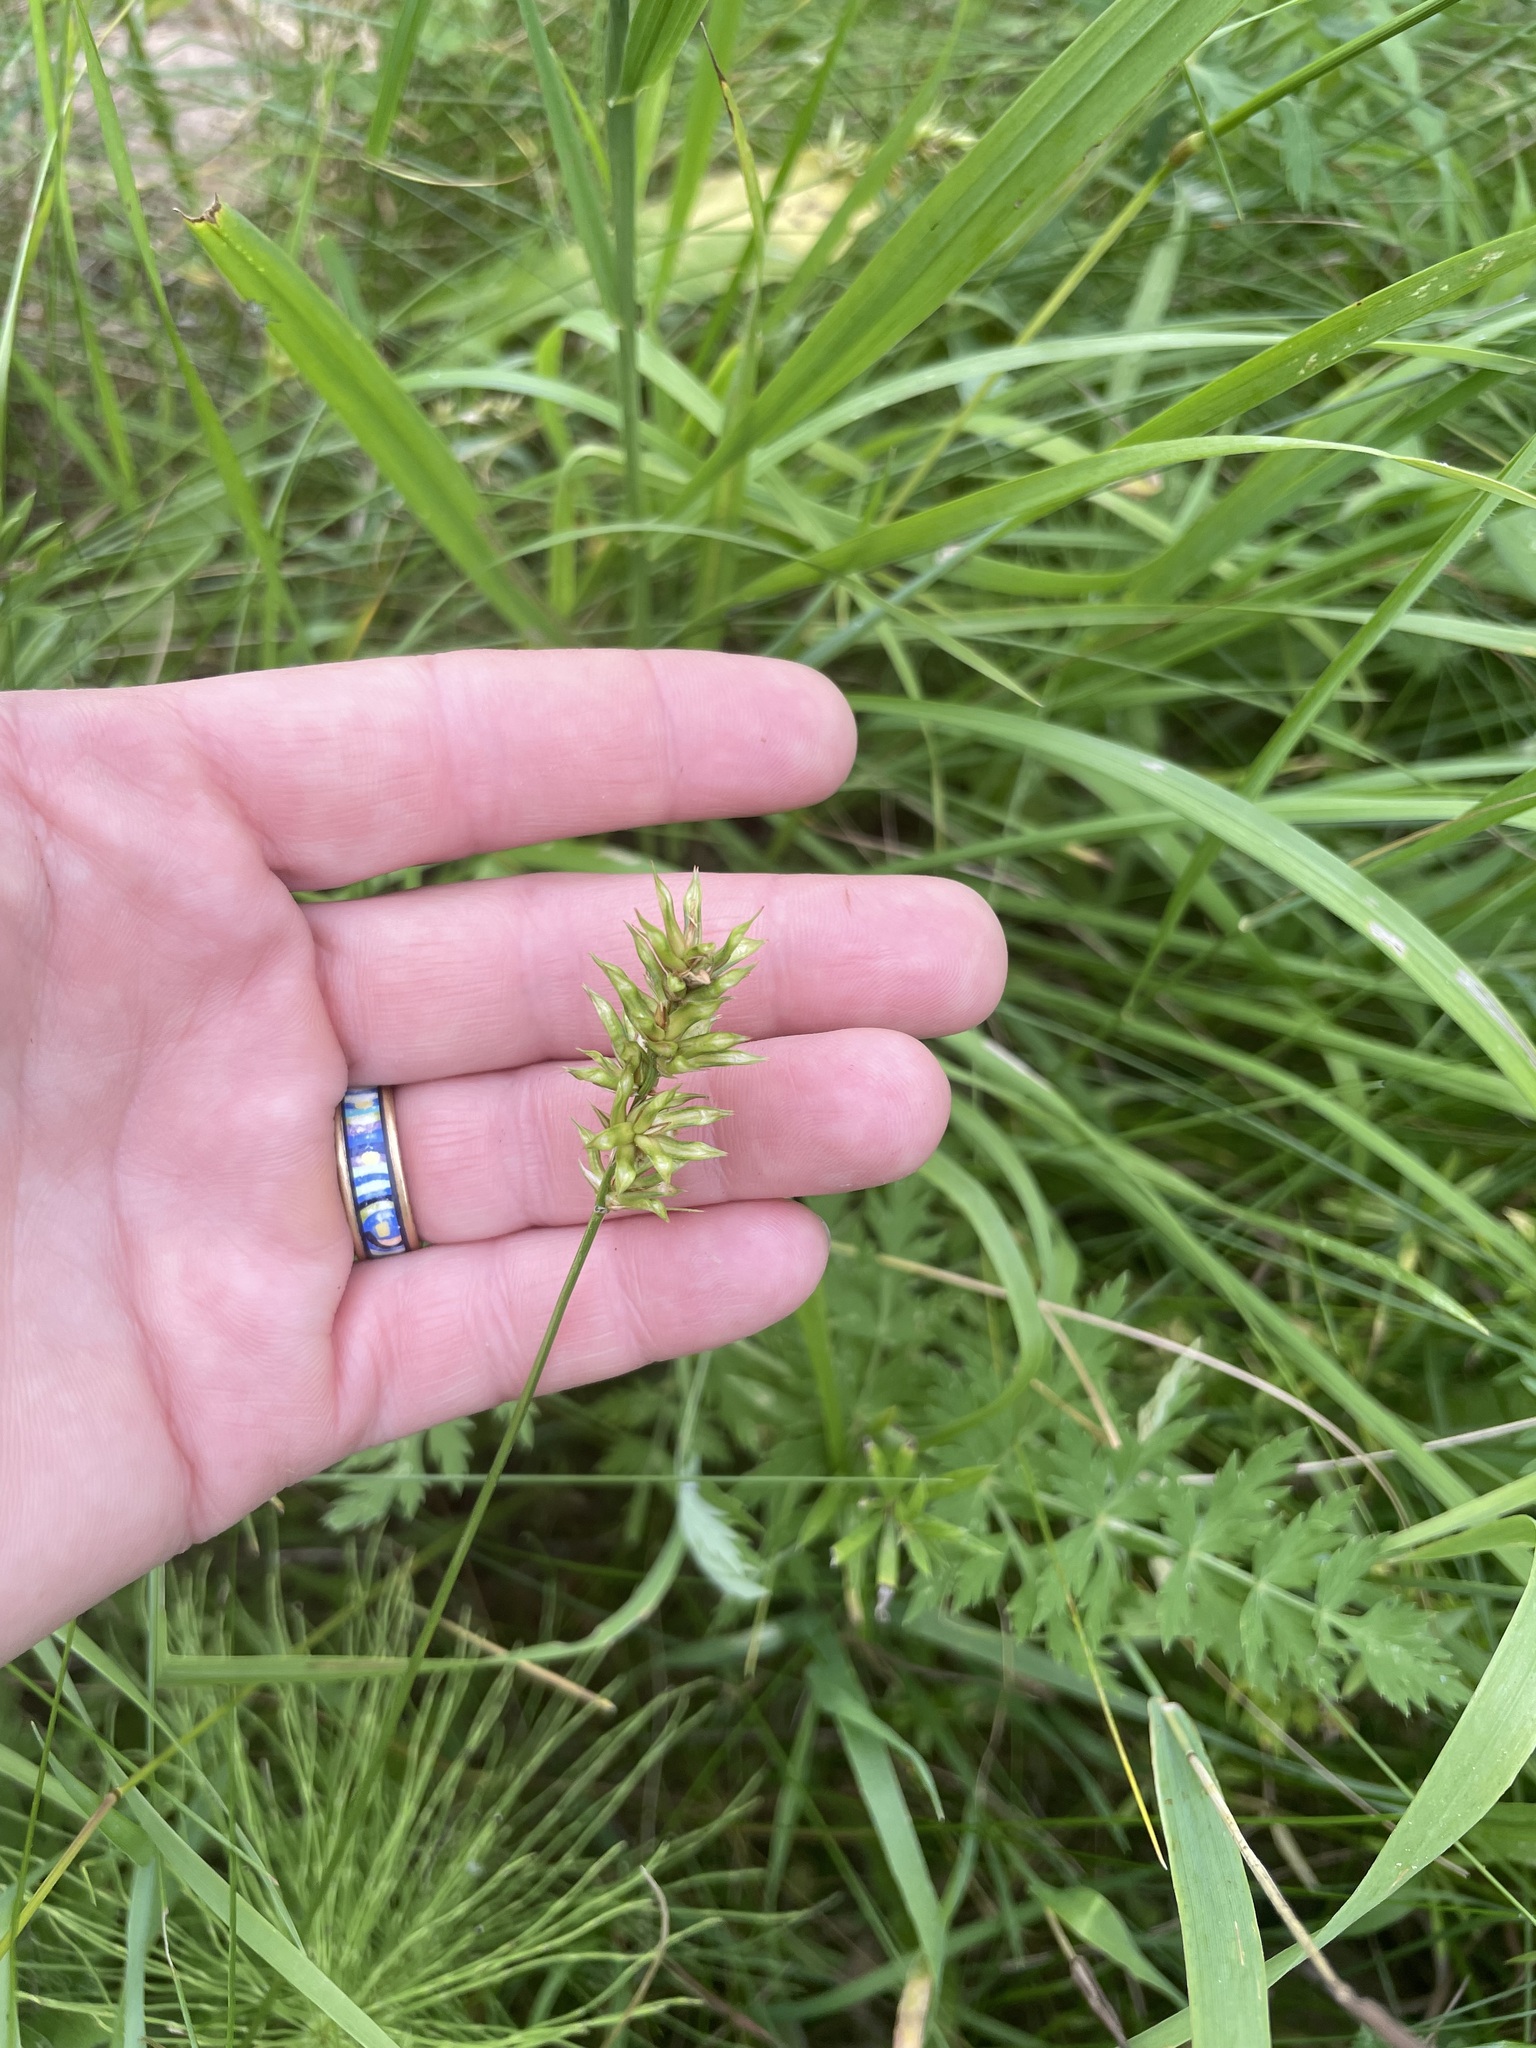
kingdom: Plantae
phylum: Tracheophyta
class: Liliopsida
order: Poales
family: Cyperaceae
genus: Carex
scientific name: Carex spicata
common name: Spiked sedge
